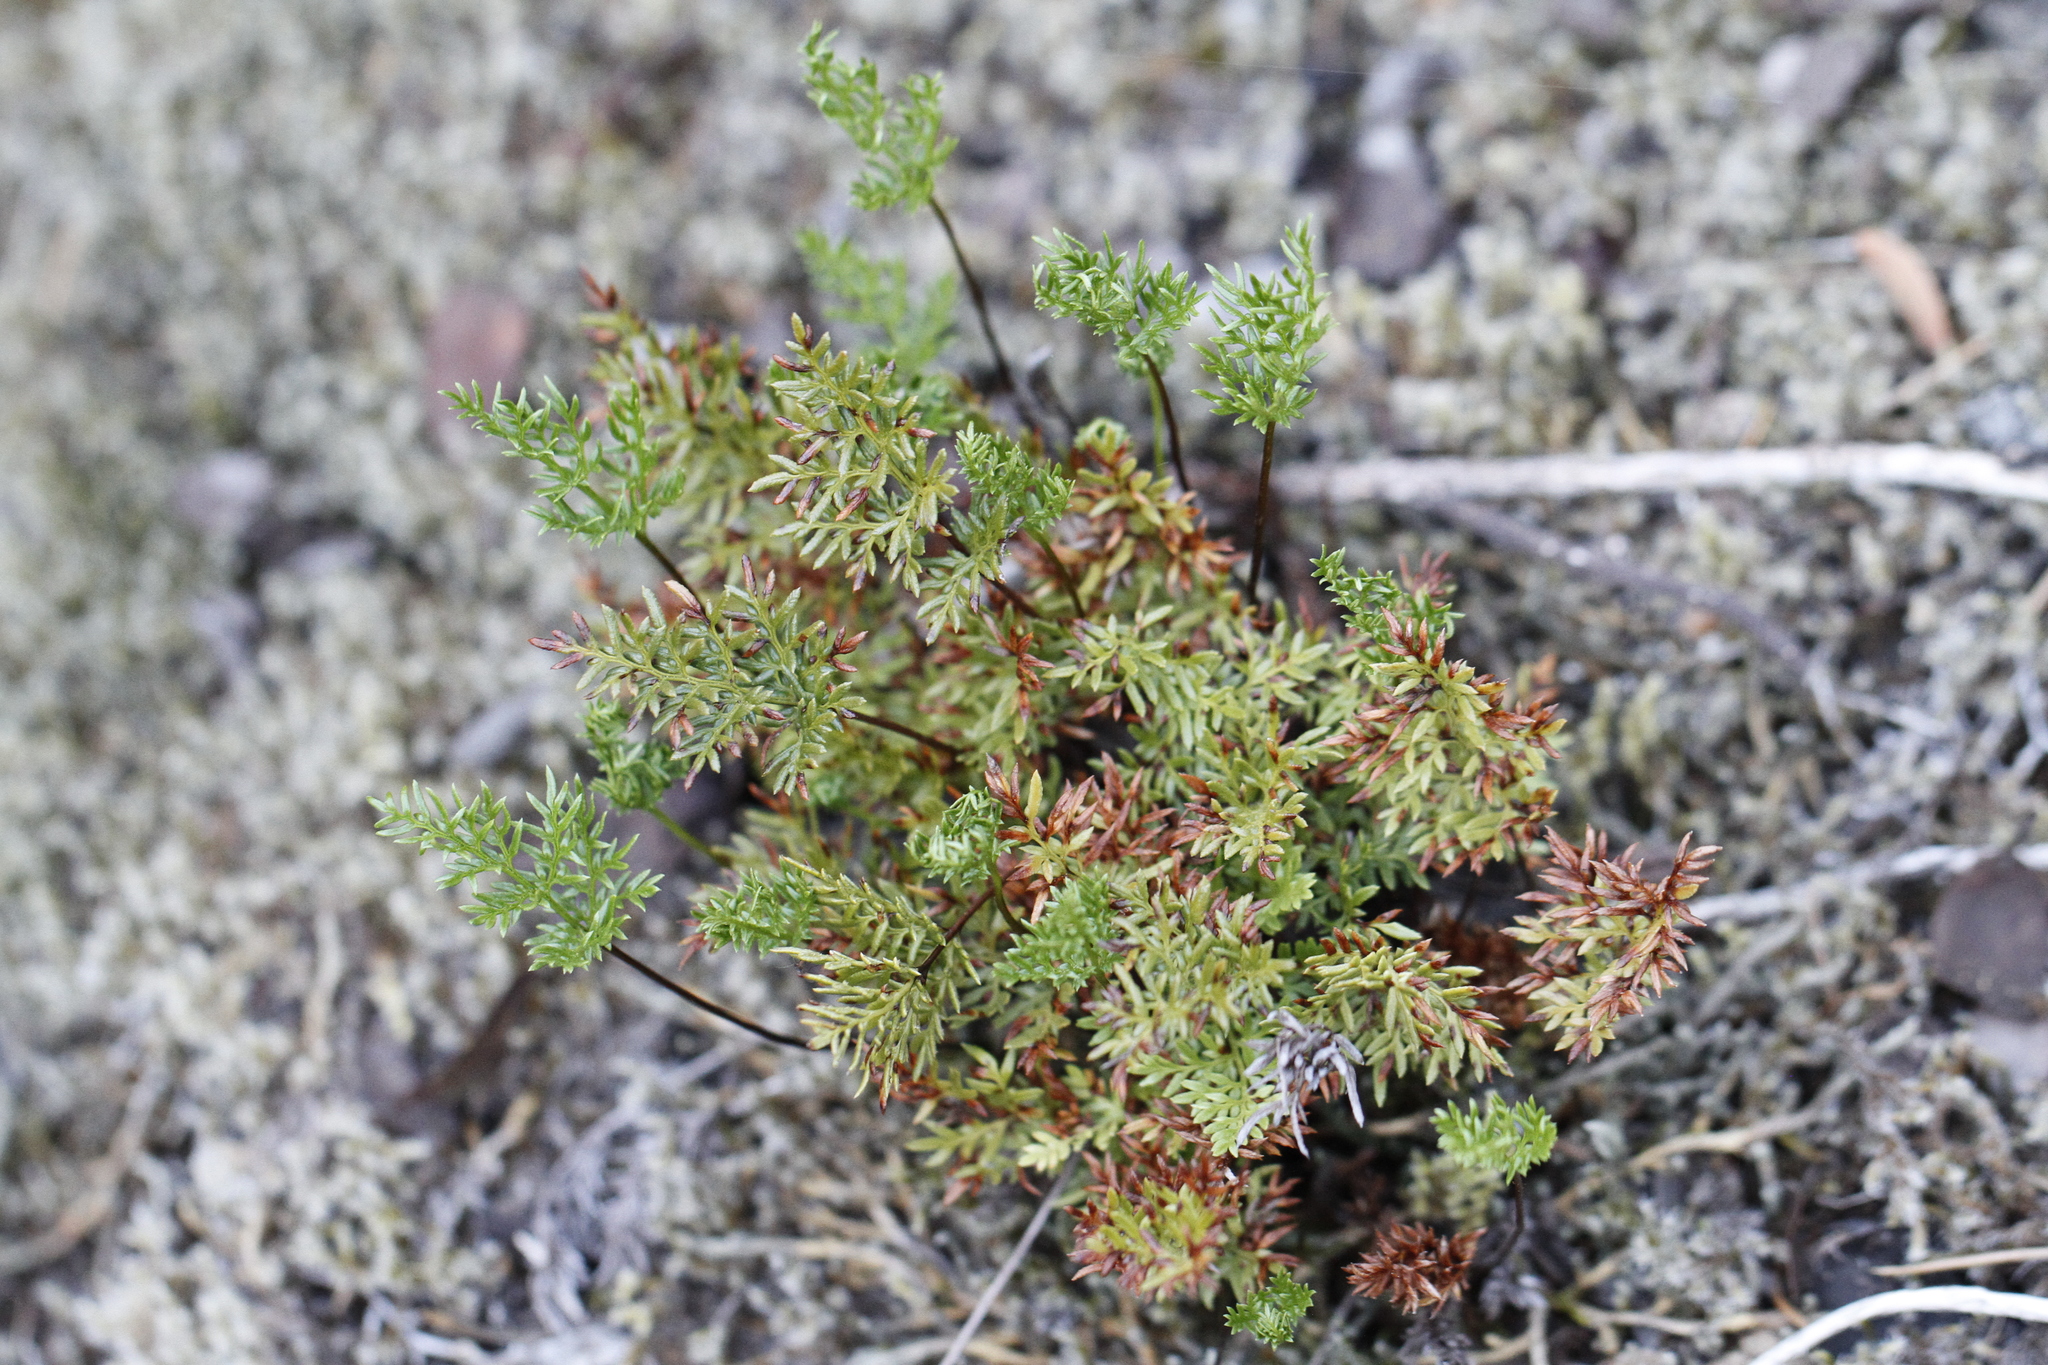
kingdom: Plantae
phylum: Tracheophyta
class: Polypodiopsida
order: Polypodiales
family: Pteridaceae
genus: Aspidotis
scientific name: Aspidotis densa
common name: Indian's dream
